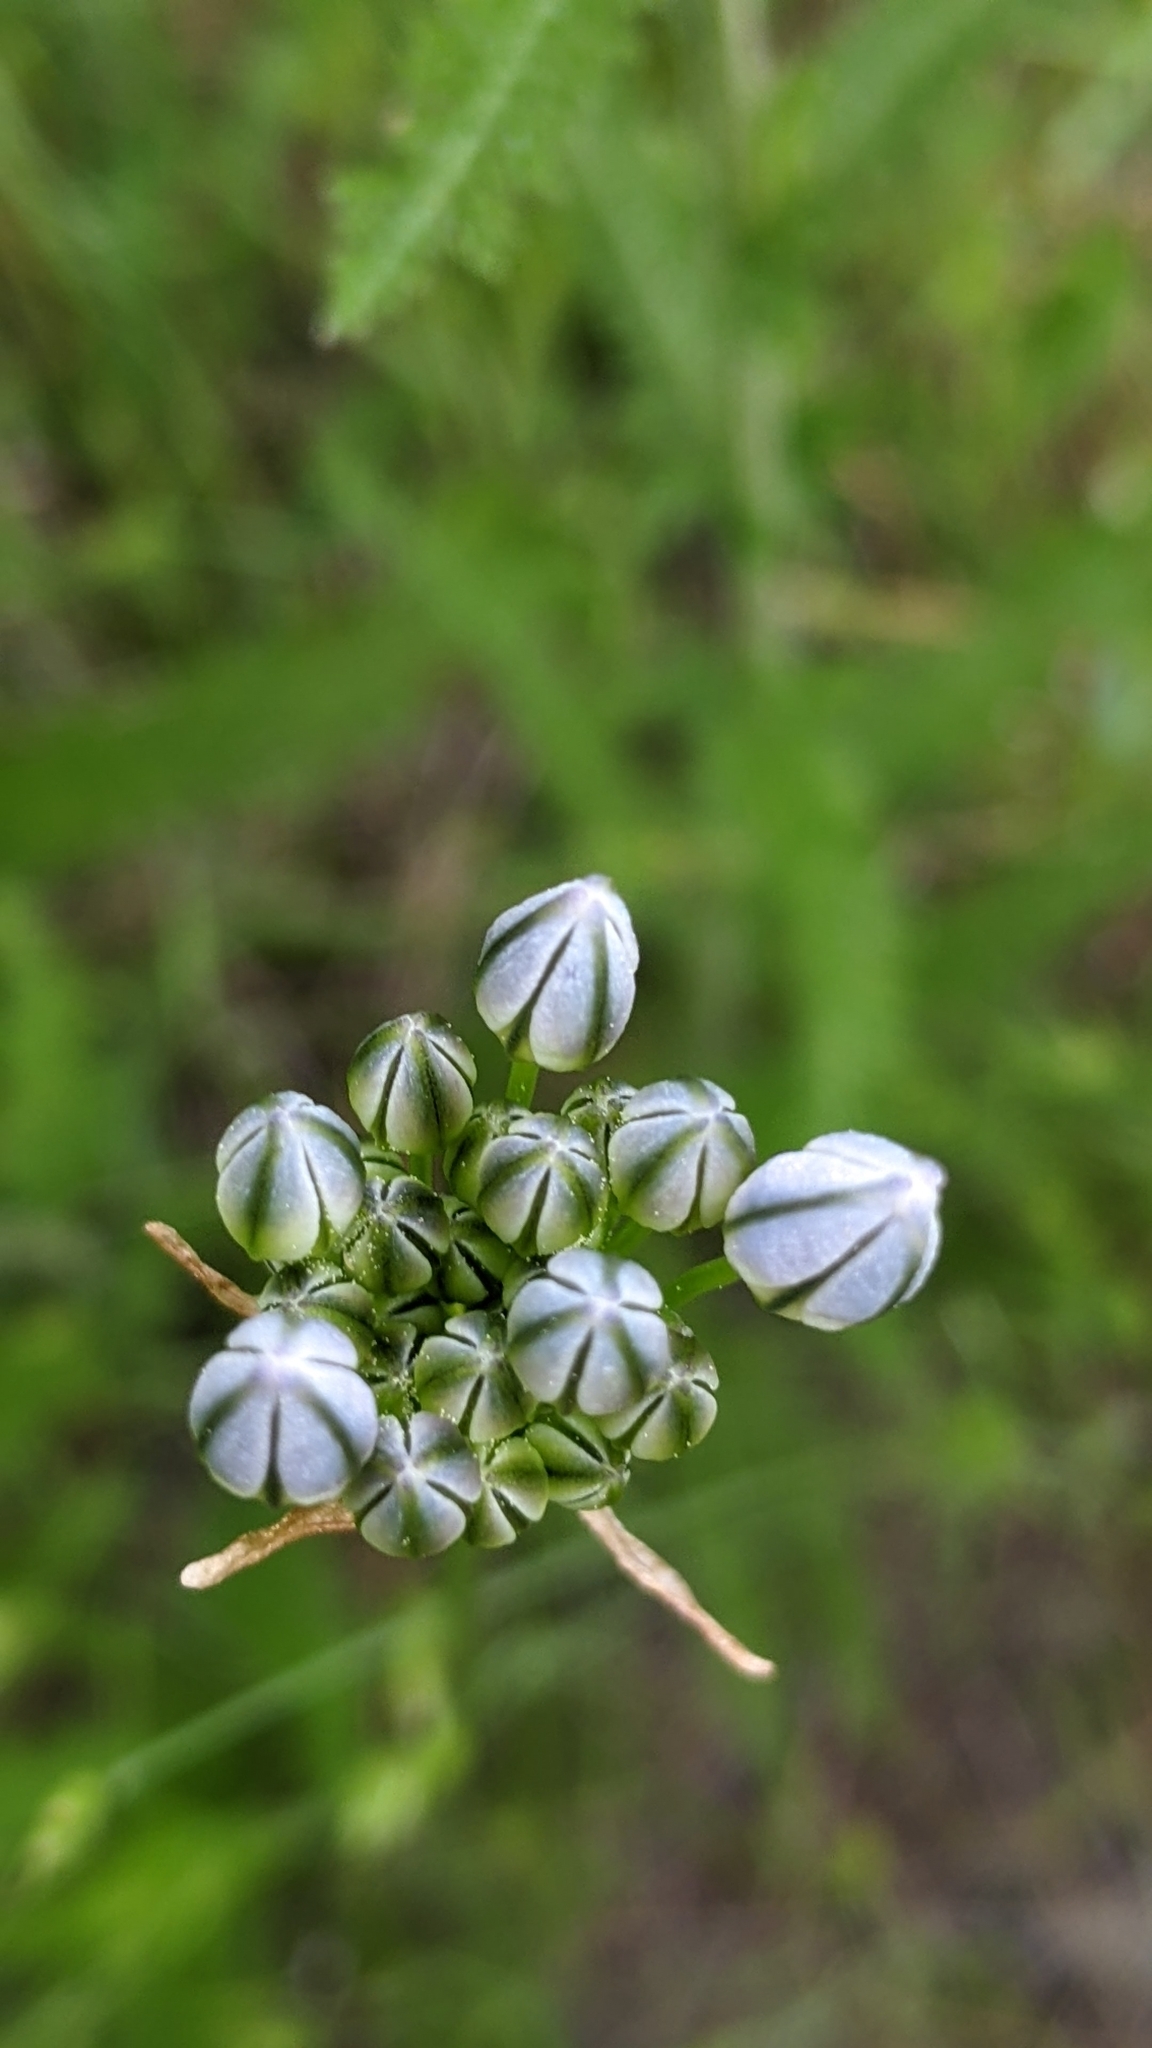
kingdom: Plantae
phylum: Tracheophyta
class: Liliopsida
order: Asparagales
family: Asparagaceae
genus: Triteleia
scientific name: Triteleia hyacinthina
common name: White brodiaea
